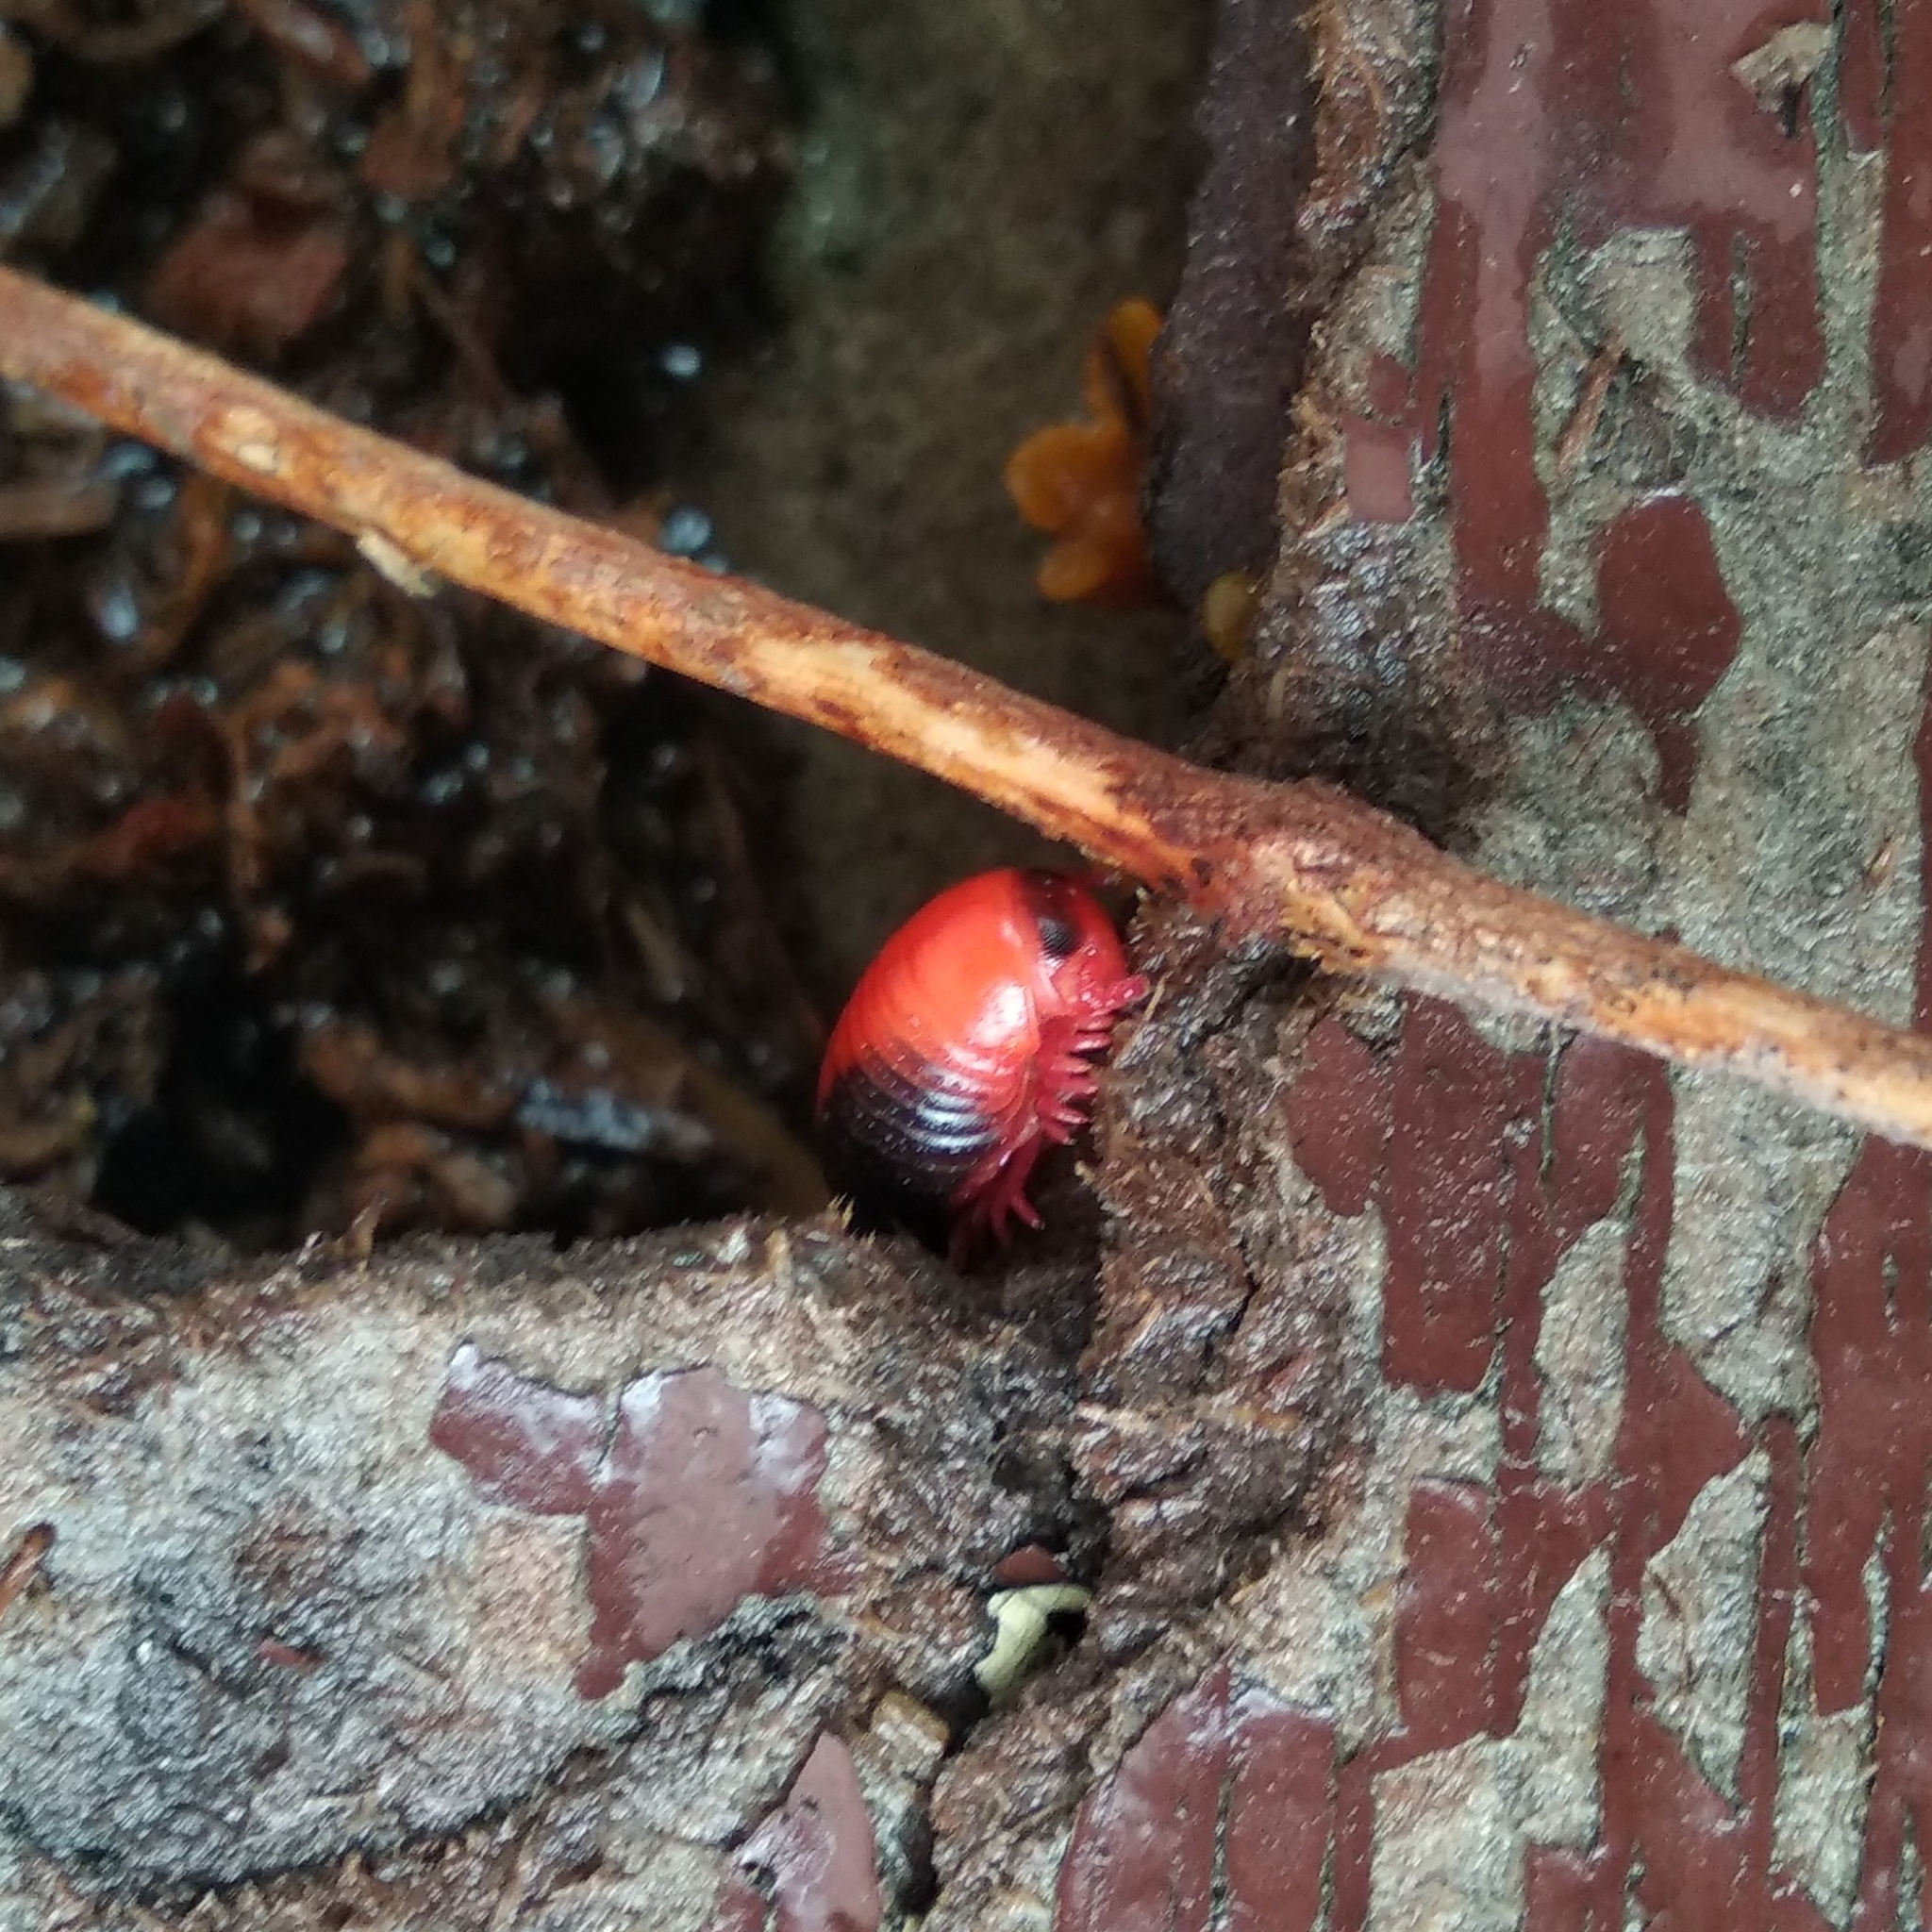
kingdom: Animalia
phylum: Arthropoda
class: Diplopoda
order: Spirobolida
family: Pachybolidae
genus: Xenobolus
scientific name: Xenobolus carnifex
